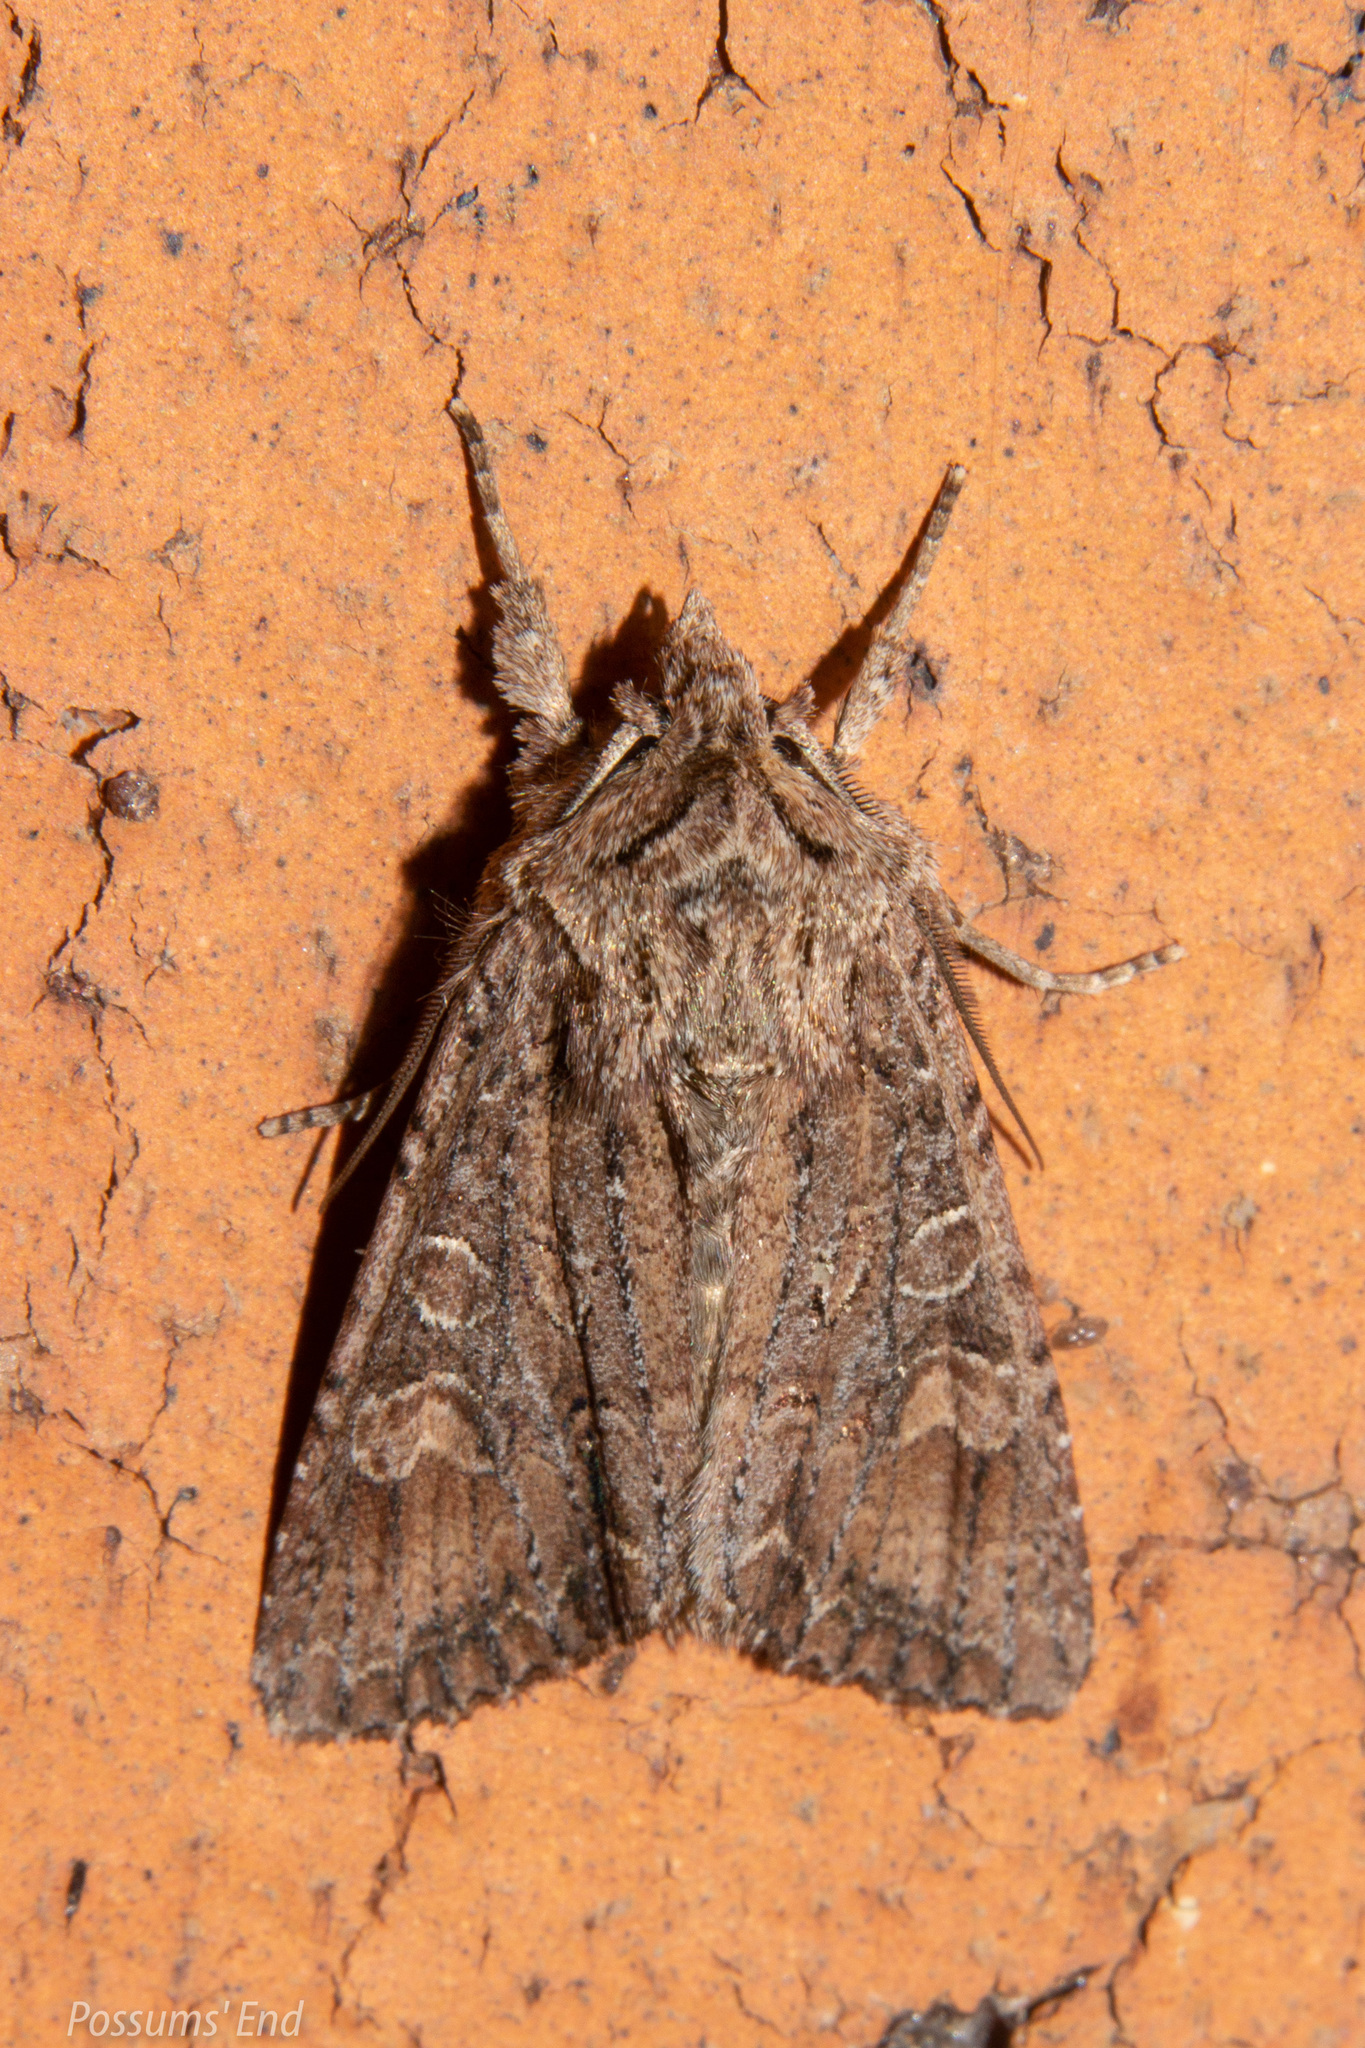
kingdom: Animalia
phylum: Arthropoda
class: Insecta
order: Lepidoptera
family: Noctuidae
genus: Ichneutica
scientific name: Ichneutica mutans
